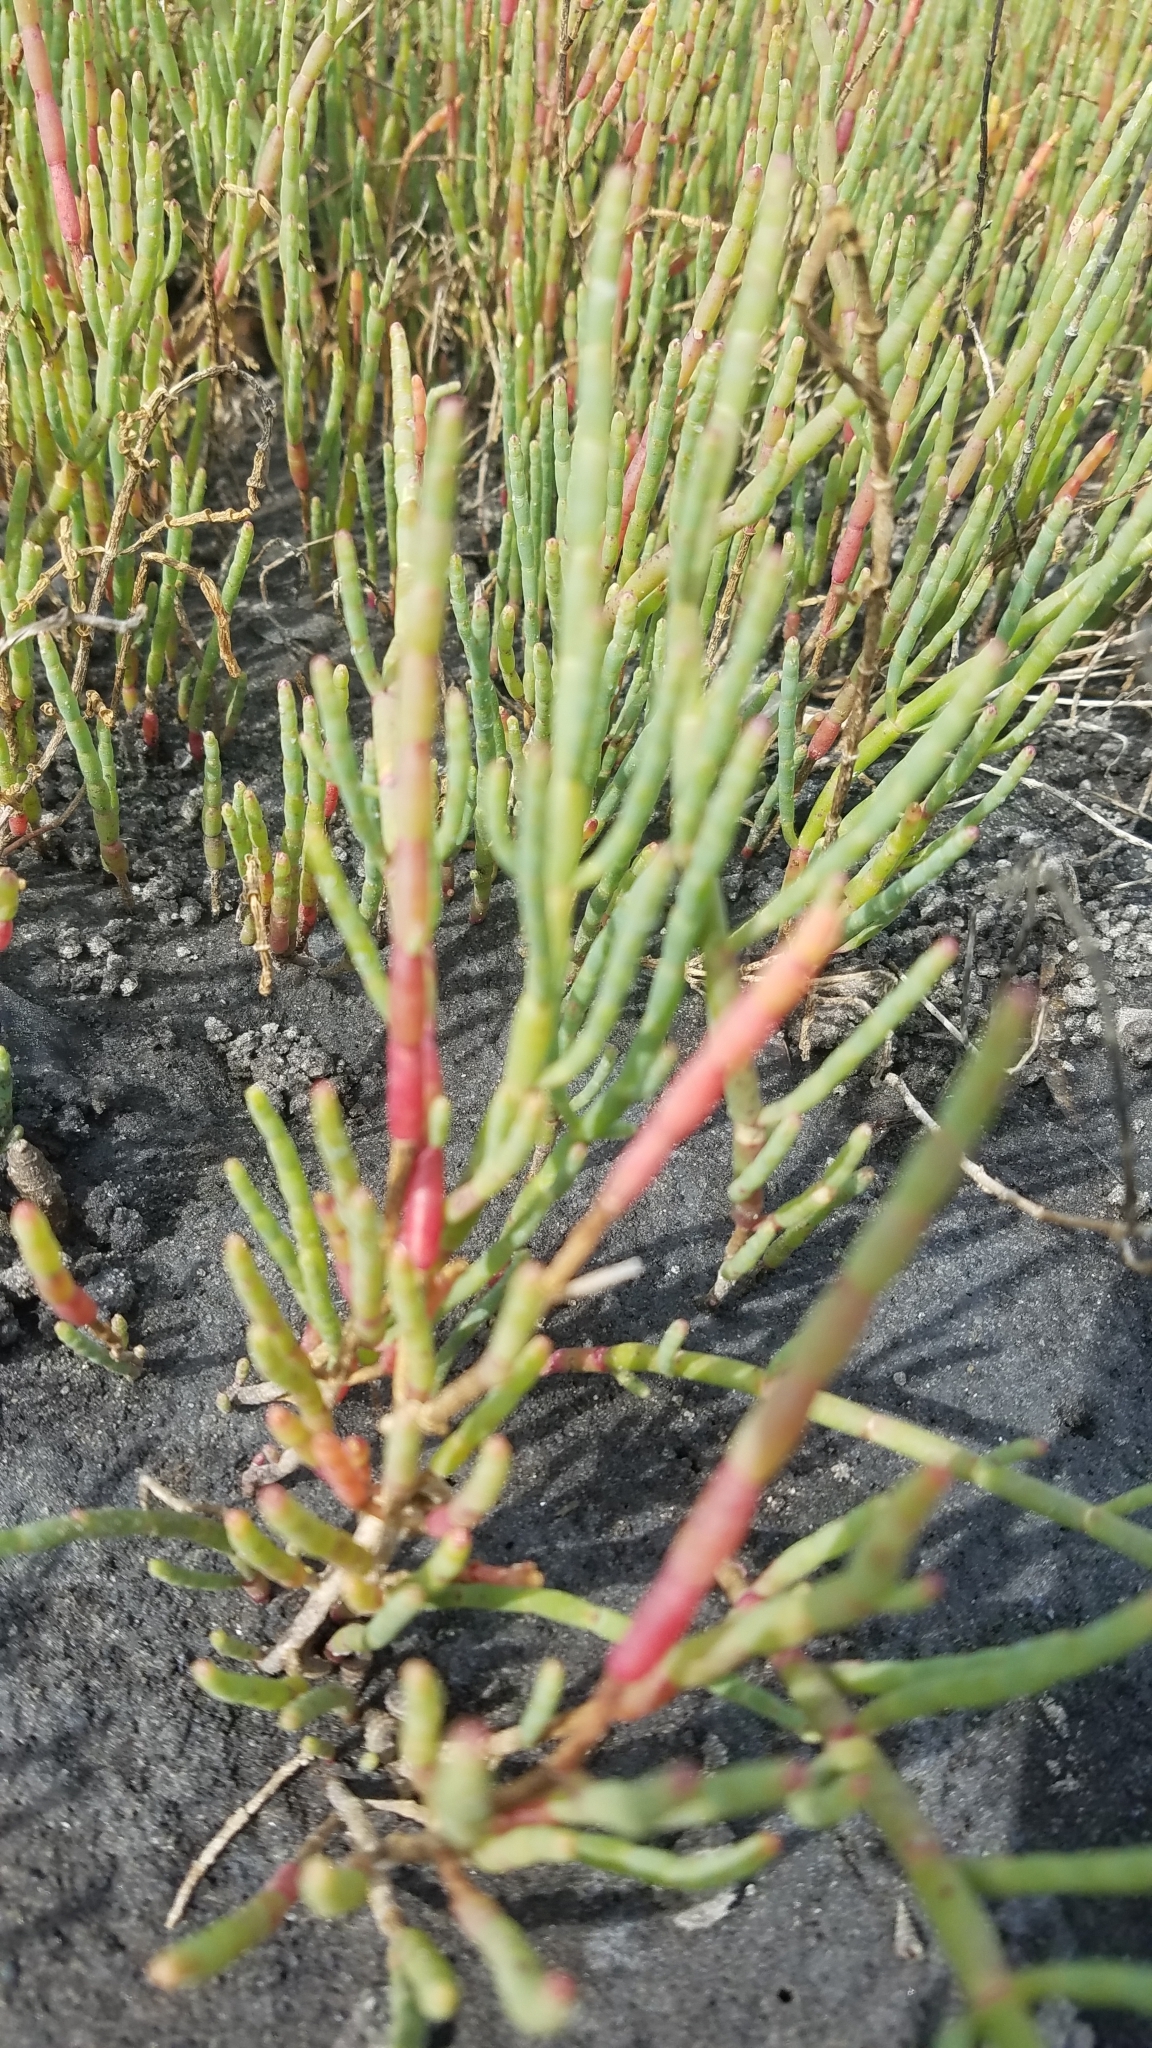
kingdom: Plantae
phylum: Tracheophyta
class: Magnoliopsida
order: Caryophyllales
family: Amaranthaceae
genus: Salicornia
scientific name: Salicornia ambigua
